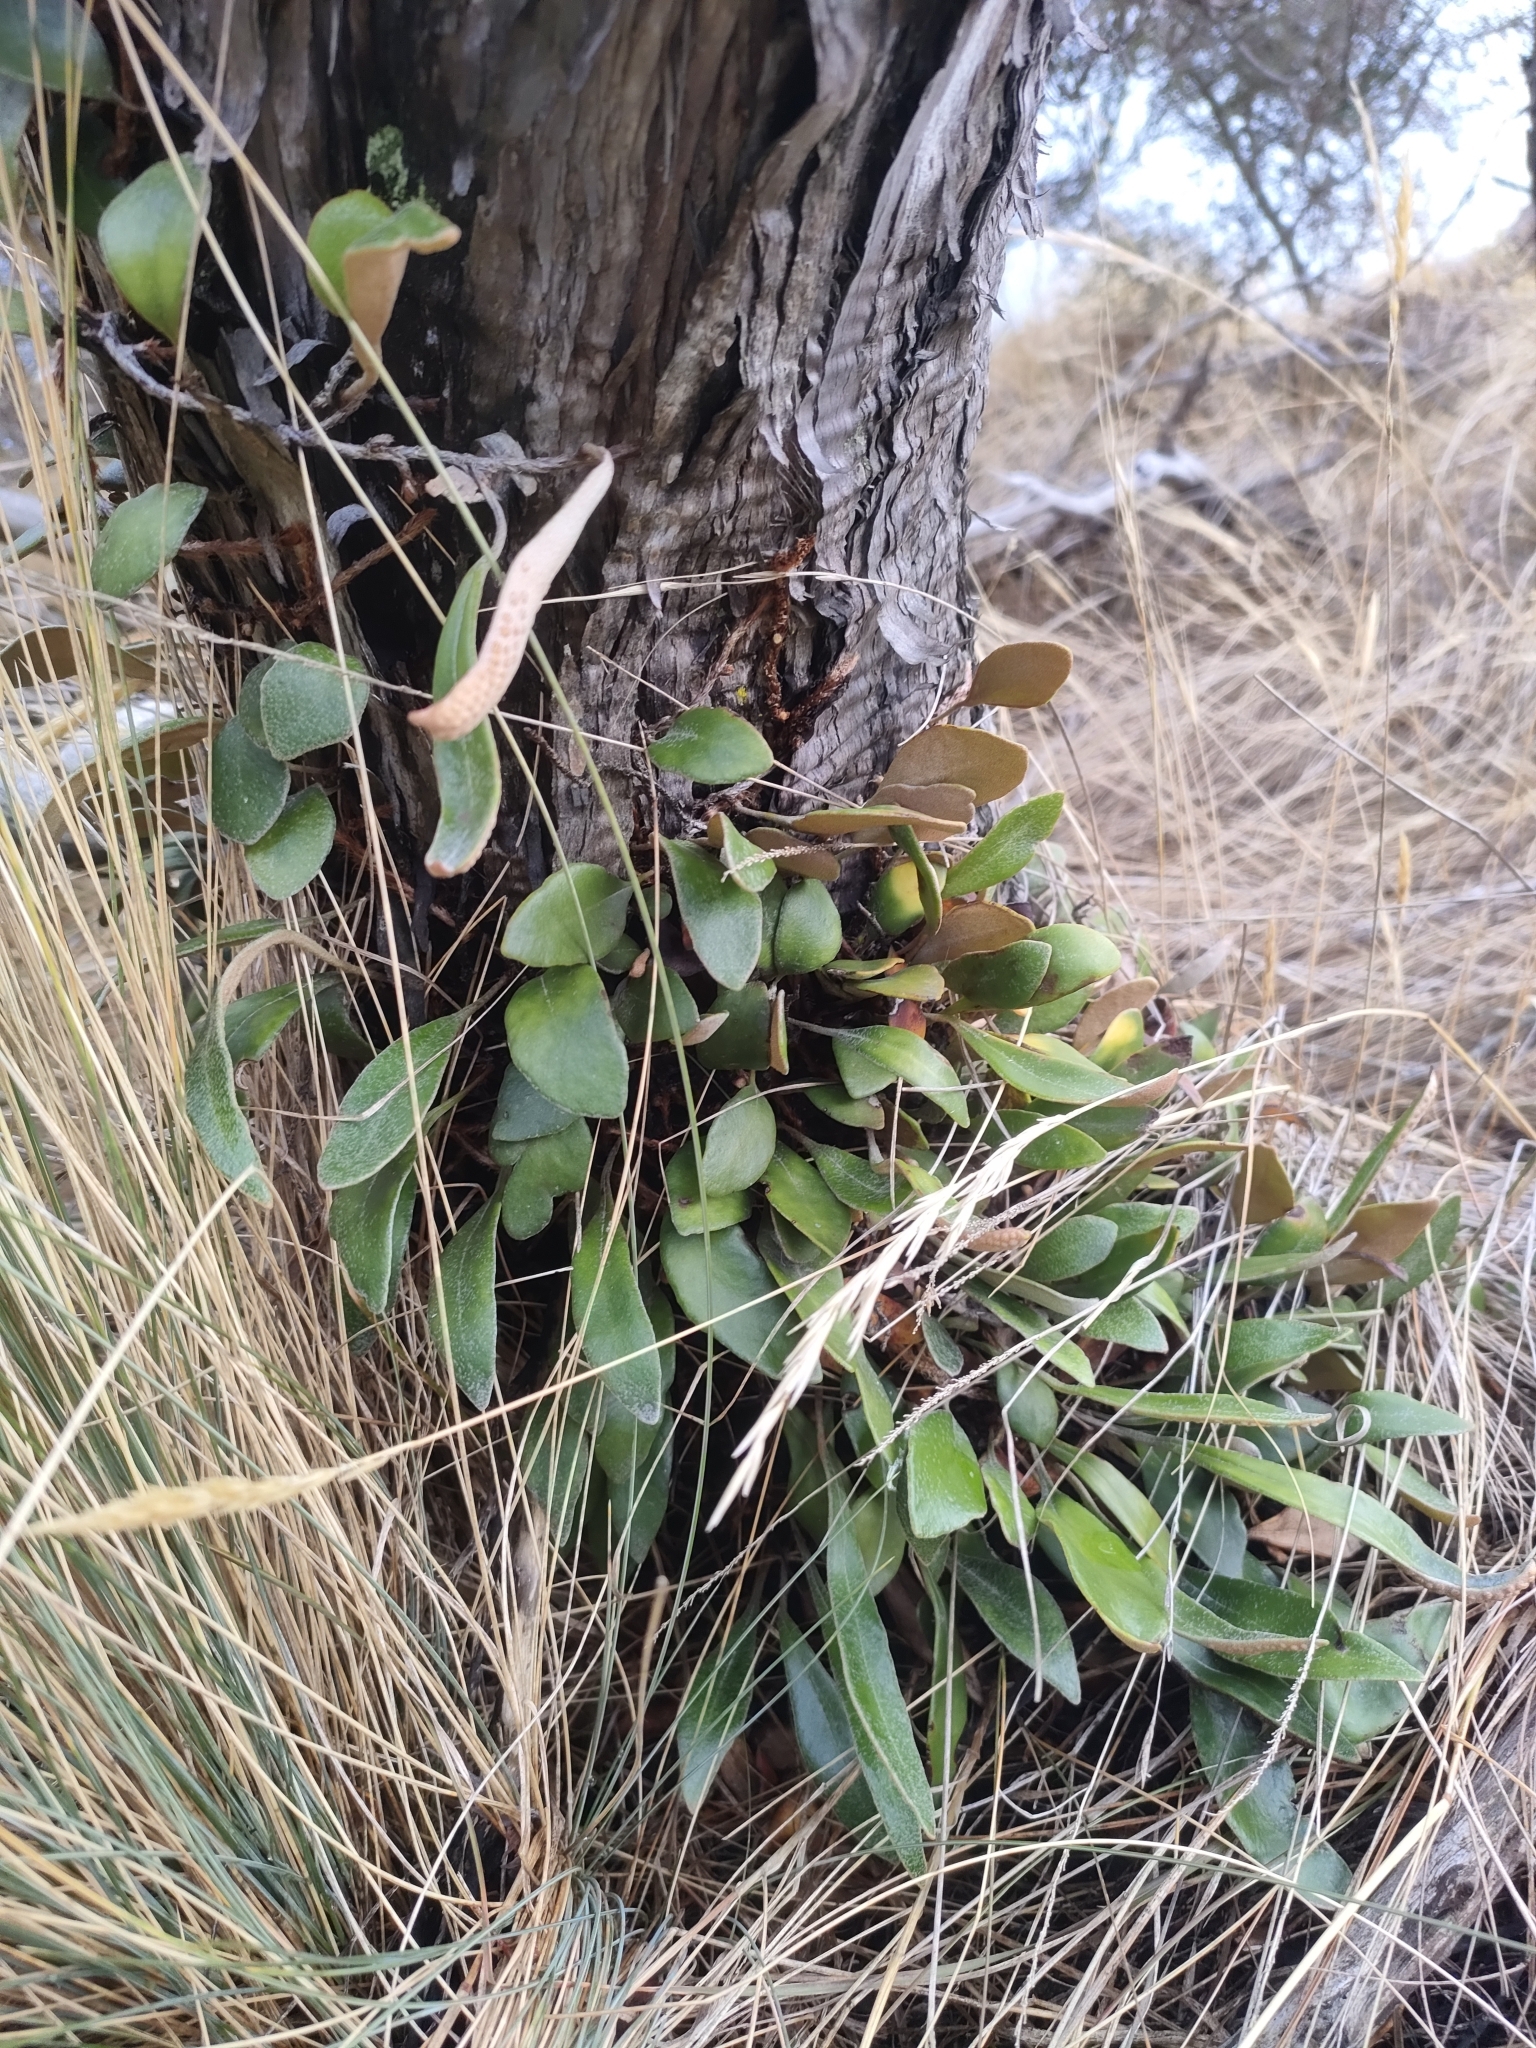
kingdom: Plantae
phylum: Tracheophyta
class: Polypodiopsida
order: Polypodiales
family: Polypodiaceae
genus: Pyrrosia
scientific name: Pyrrosia eleagnifolia
